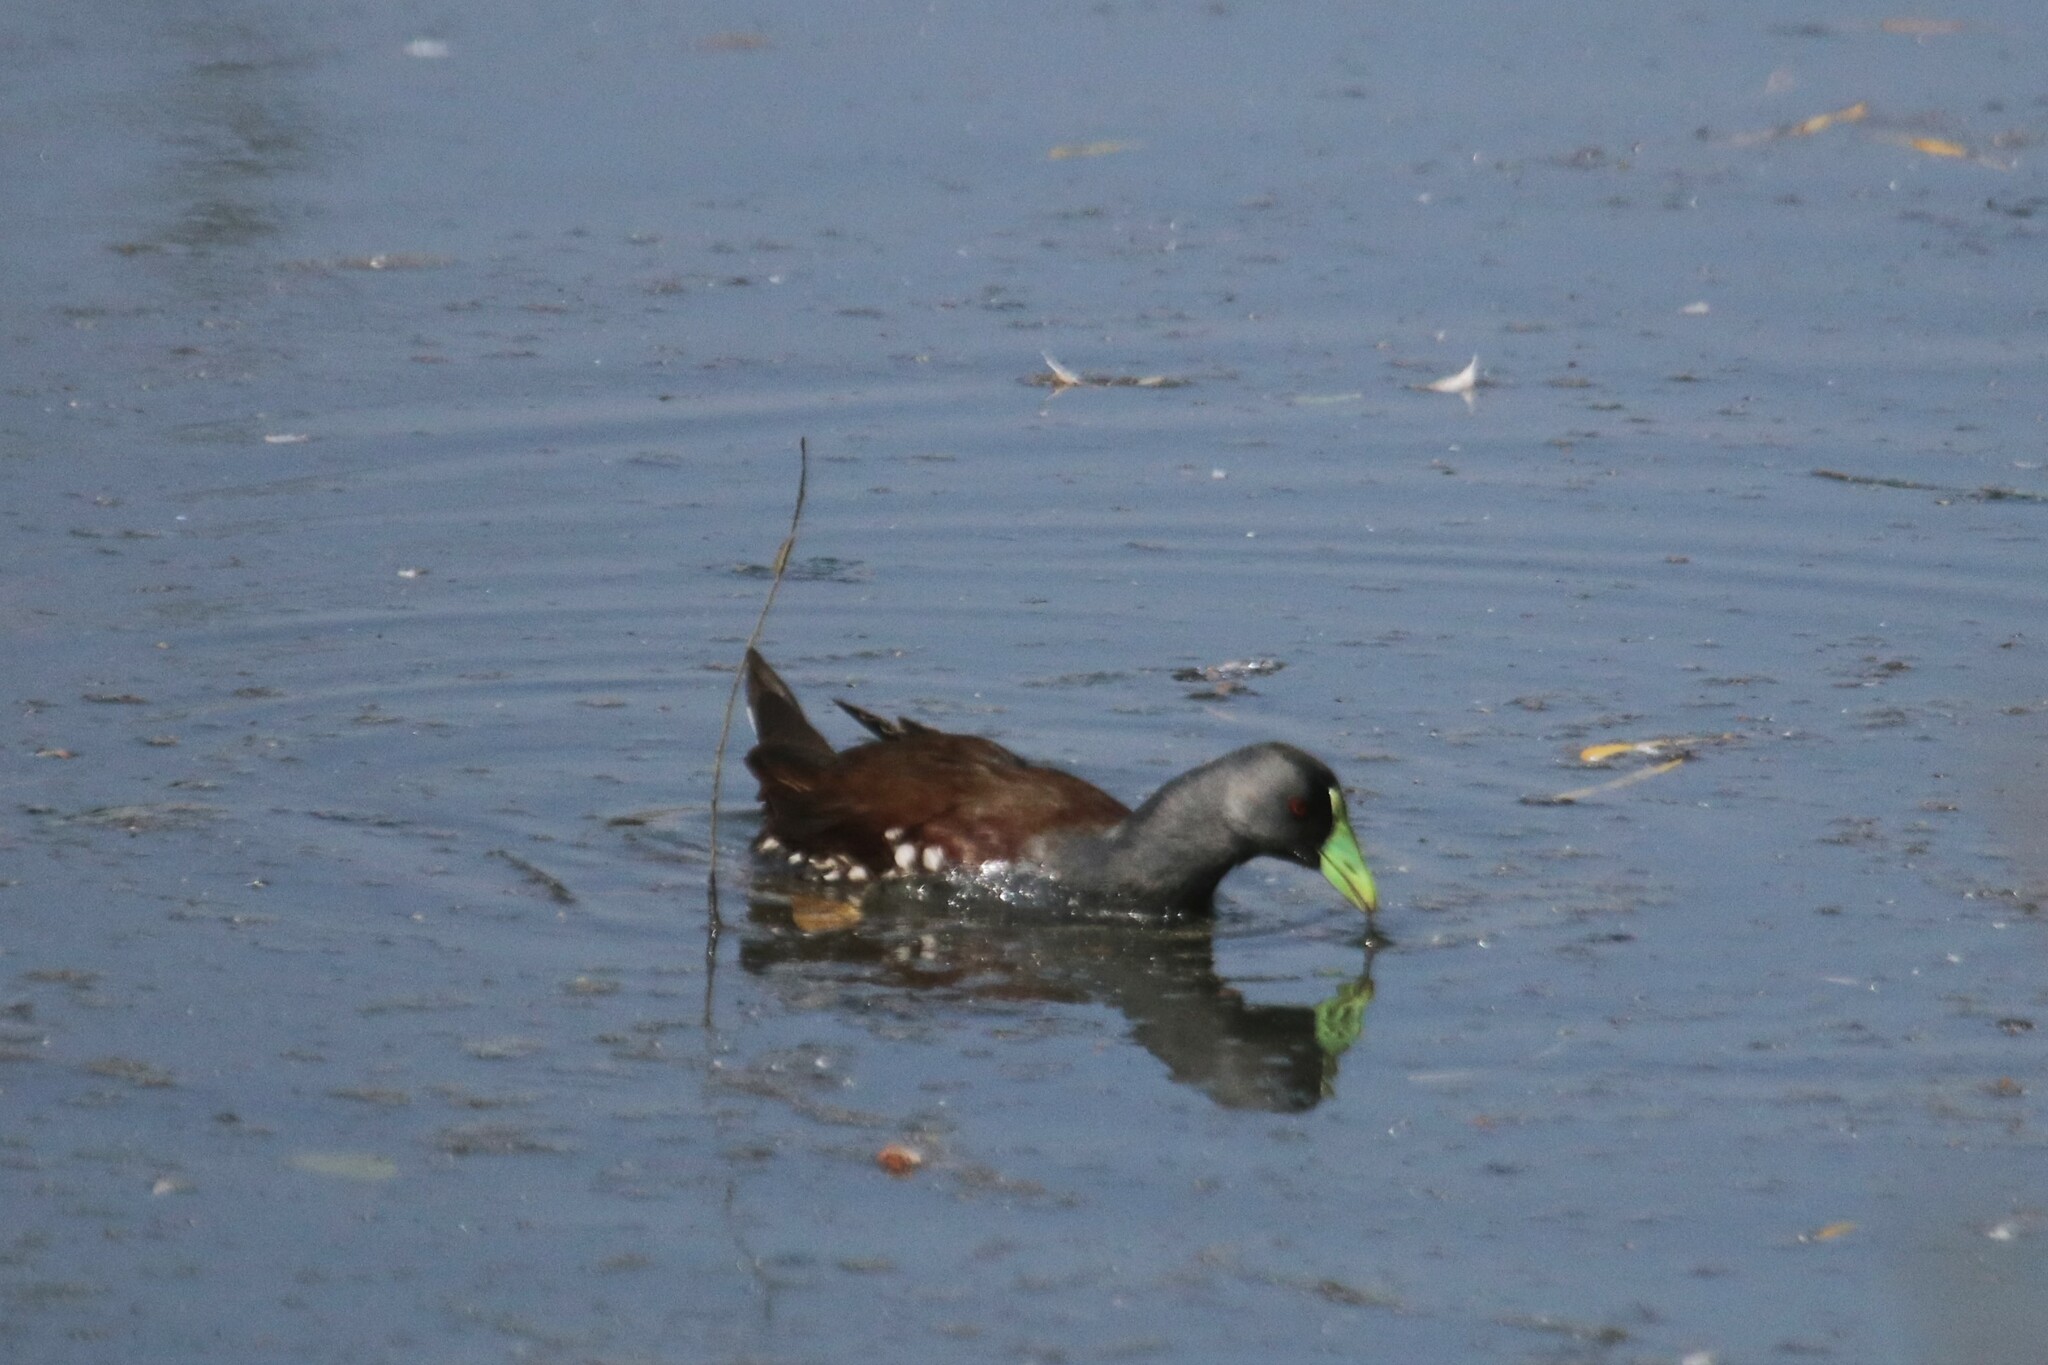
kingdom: Animalia
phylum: Chordata
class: Aves
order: Gruiformes
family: Rallidae
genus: Gallinula
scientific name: Gallinula melanops
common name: Spot-flanked gallinule
